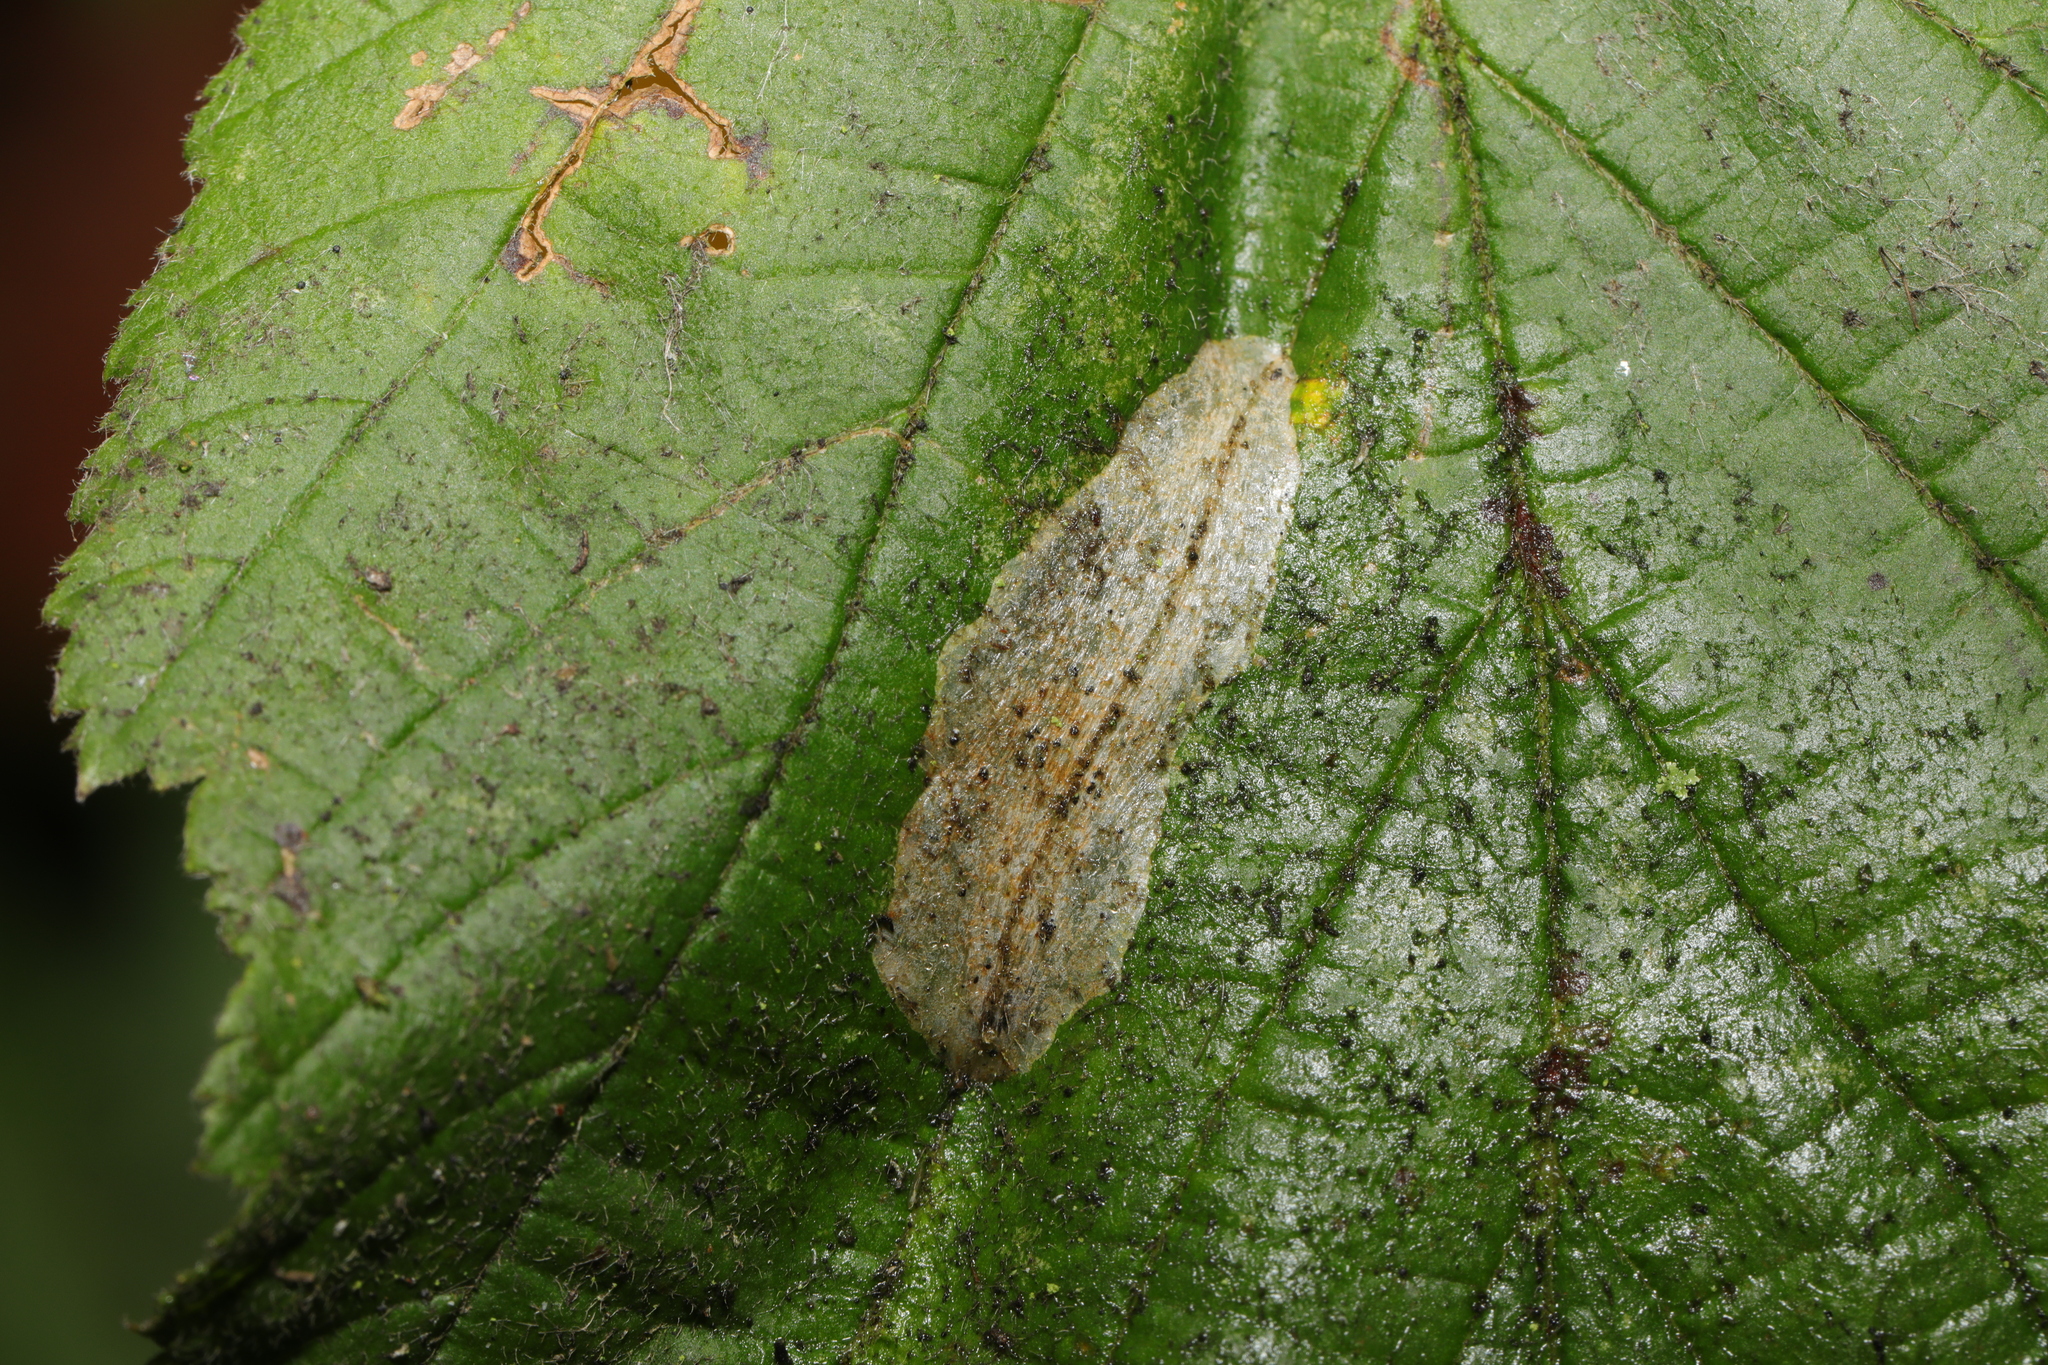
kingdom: Animalia
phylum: Arthropoda
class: Insecta
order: Lepidoptera
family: Gracillariidae
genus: Phyllonorycter
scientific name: Phyllonorycter coryli
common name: Nut-leaf blister moth
